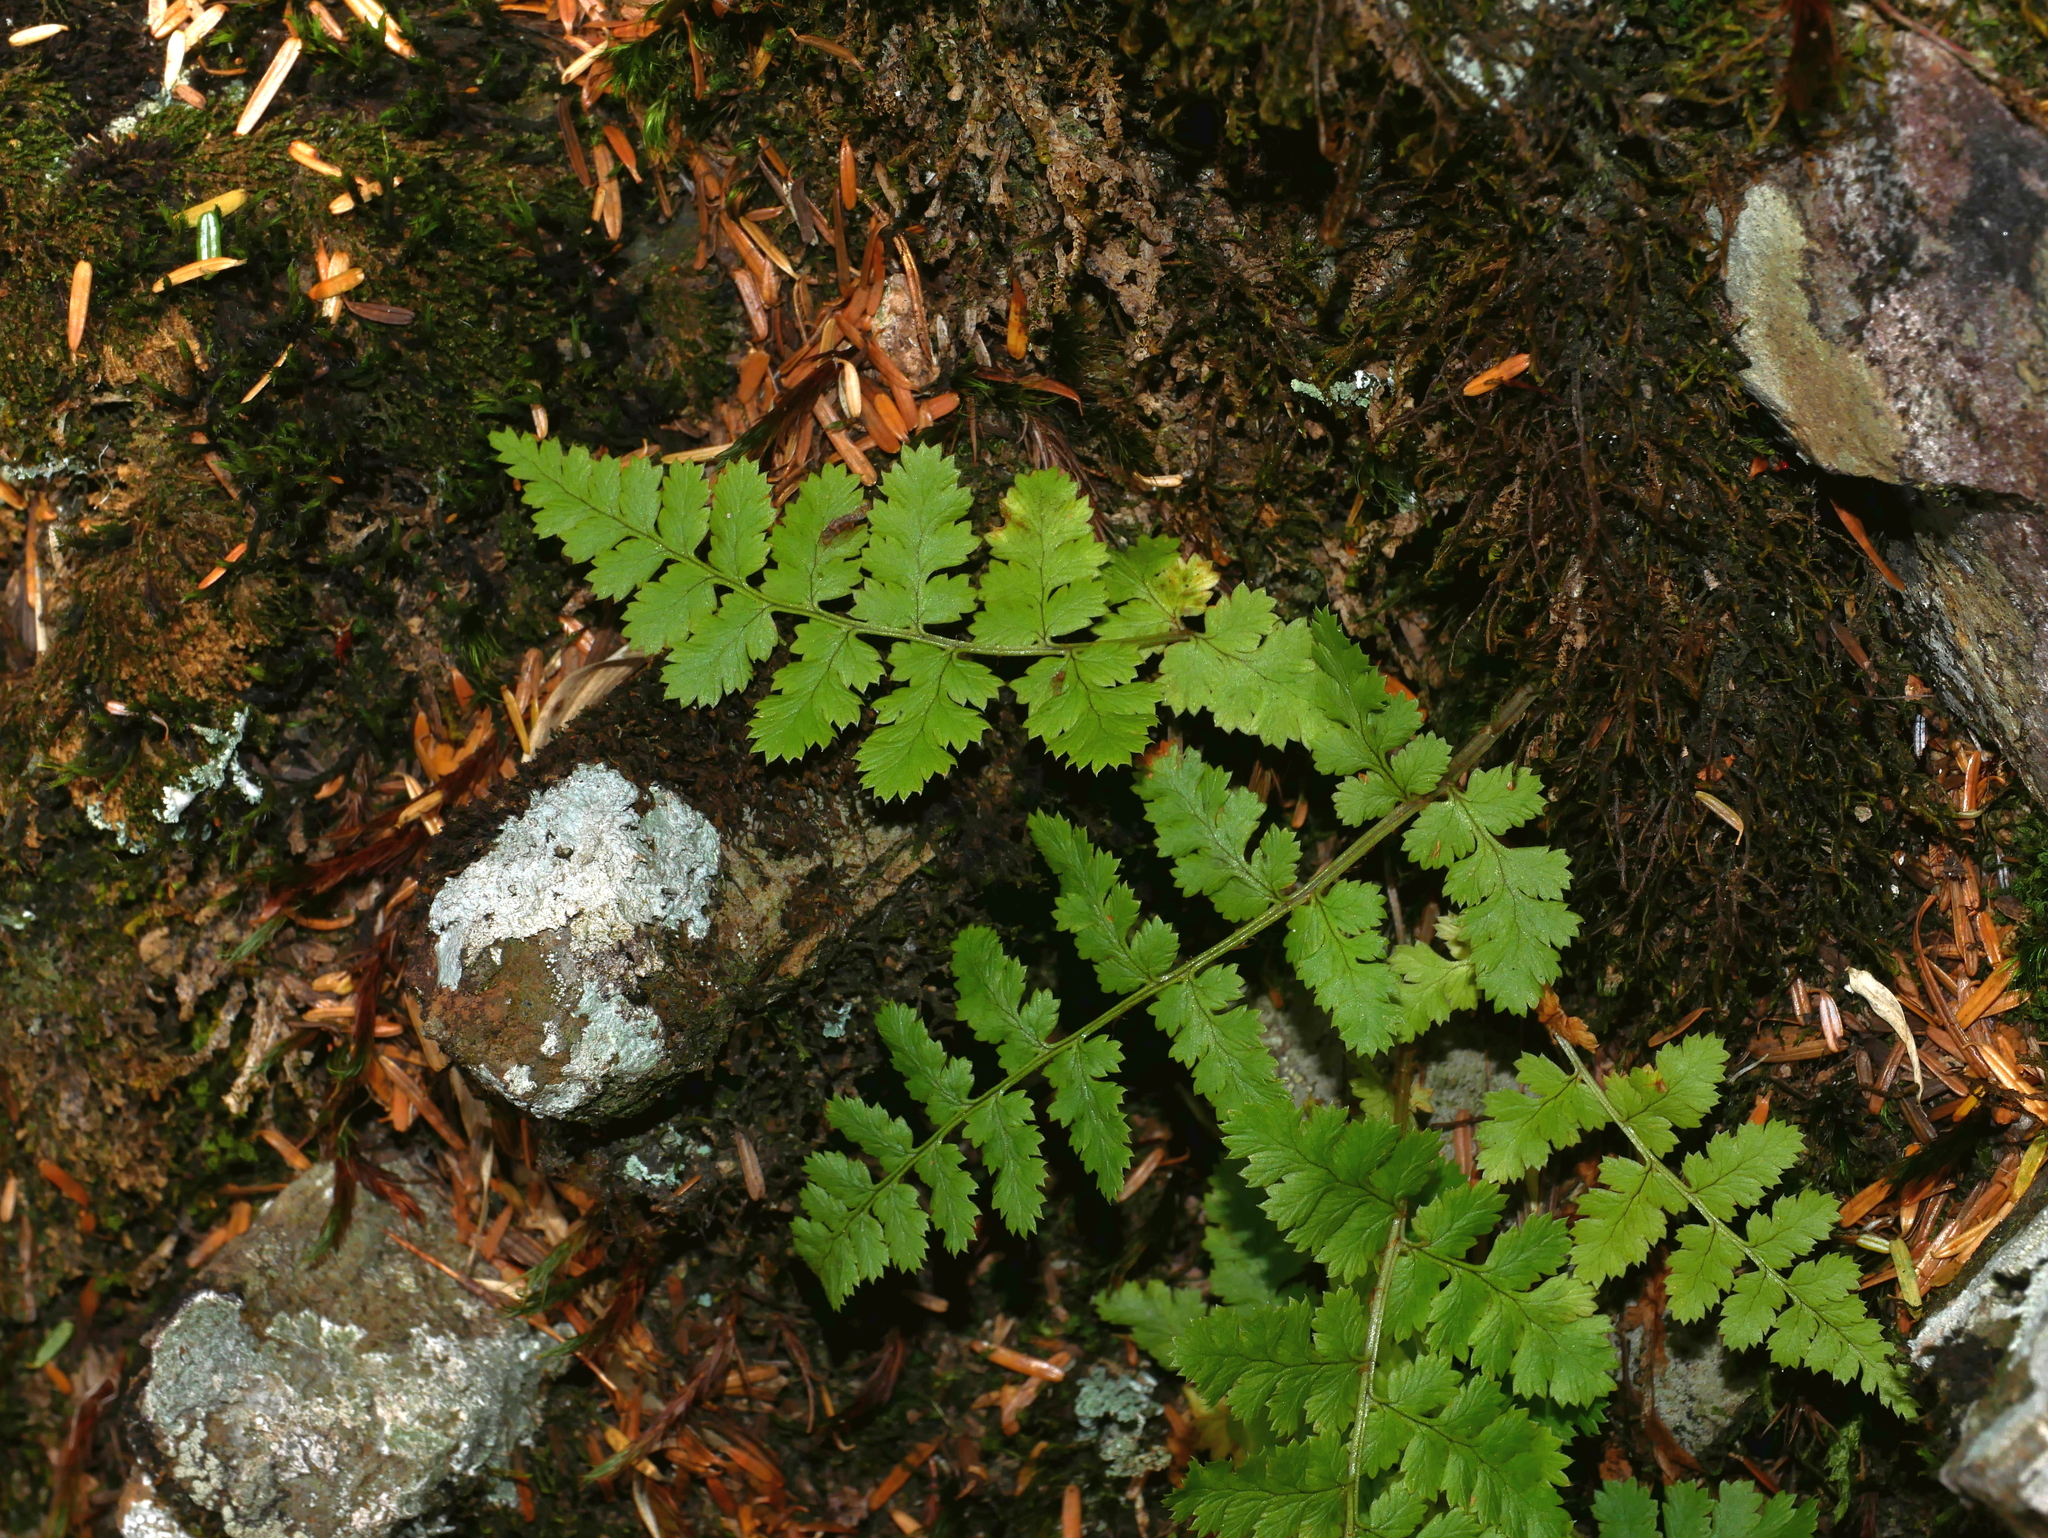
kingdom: Plantae
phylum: Tracheophyta
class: Polypodiopsida
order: Polypodiales
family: Dryopteridaceae
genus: Dryopteris
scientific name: Dryopteris serratodentata
